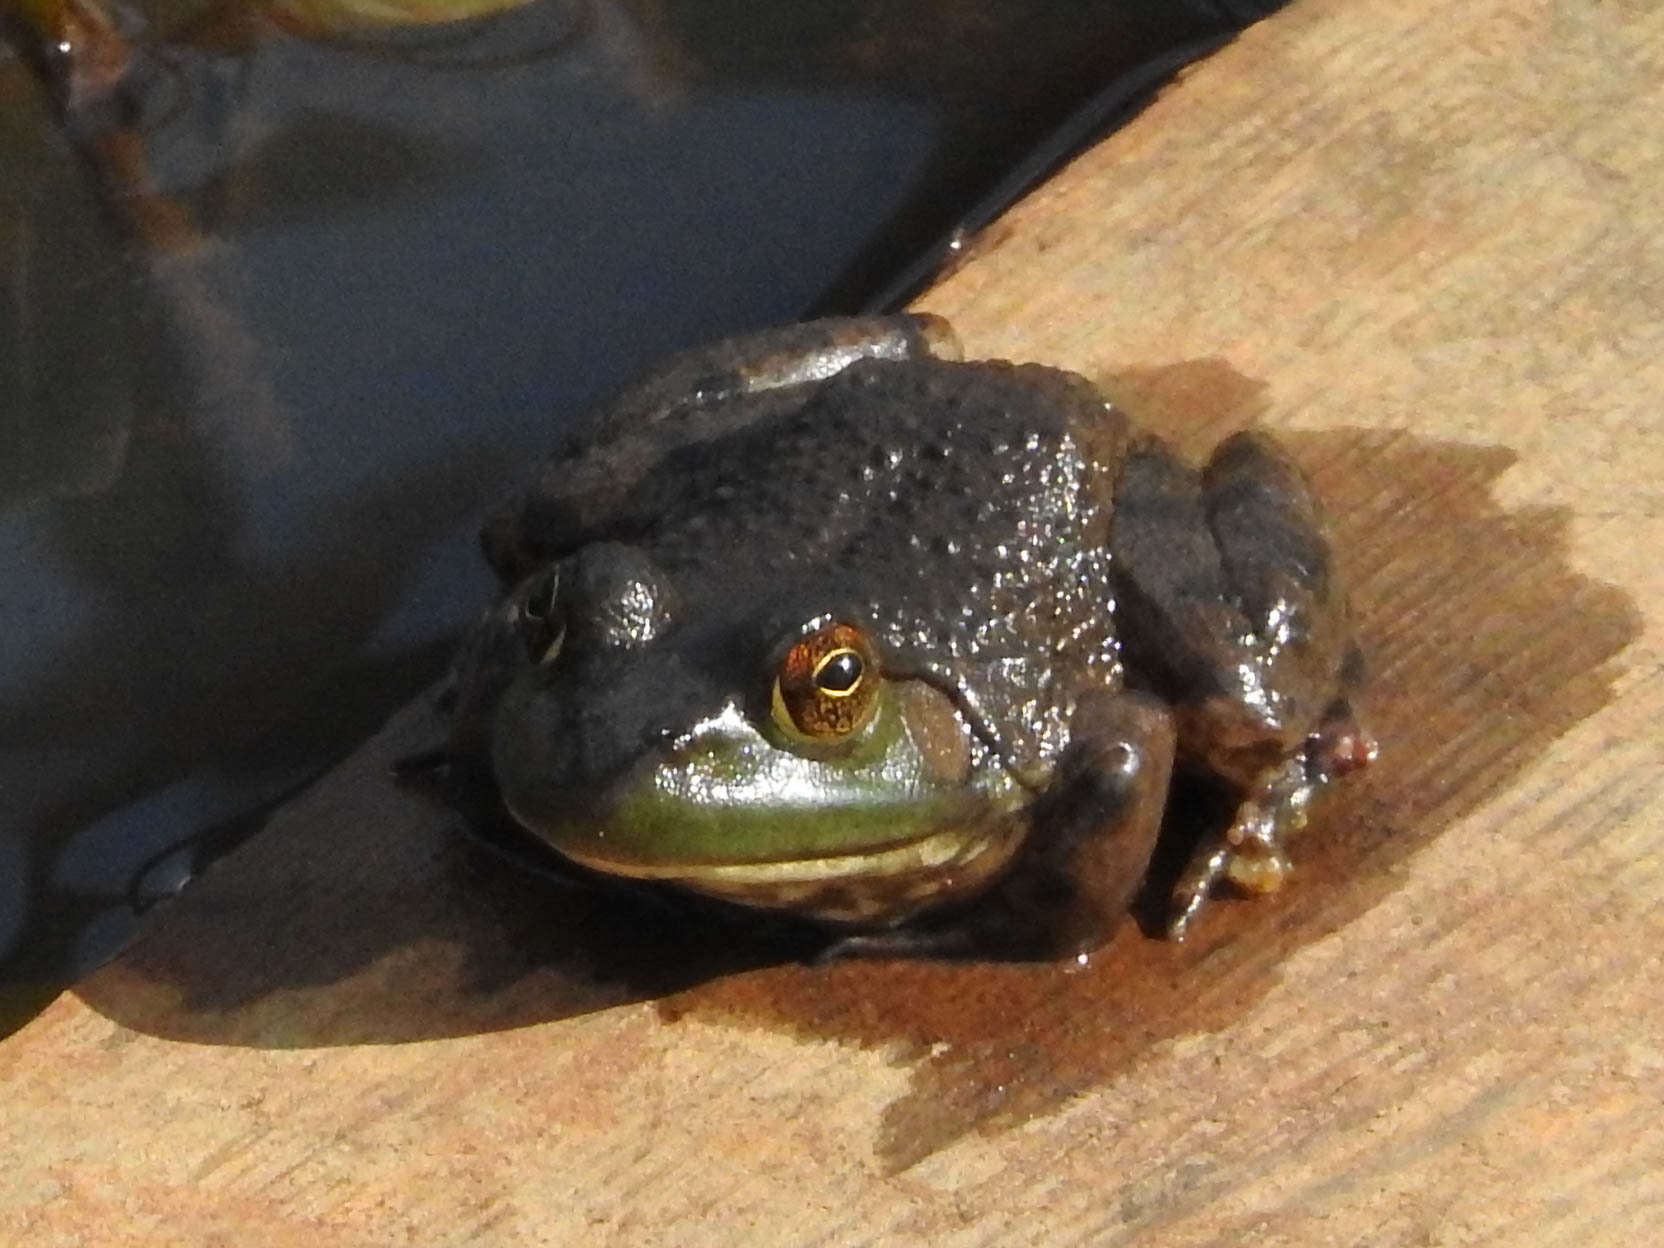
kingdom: Animalia
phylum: Chordata
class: Amphibia
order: Anura
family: Ranidae
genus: Lithobates
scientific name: Lithobates catesbeianus
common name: American bullfrog
